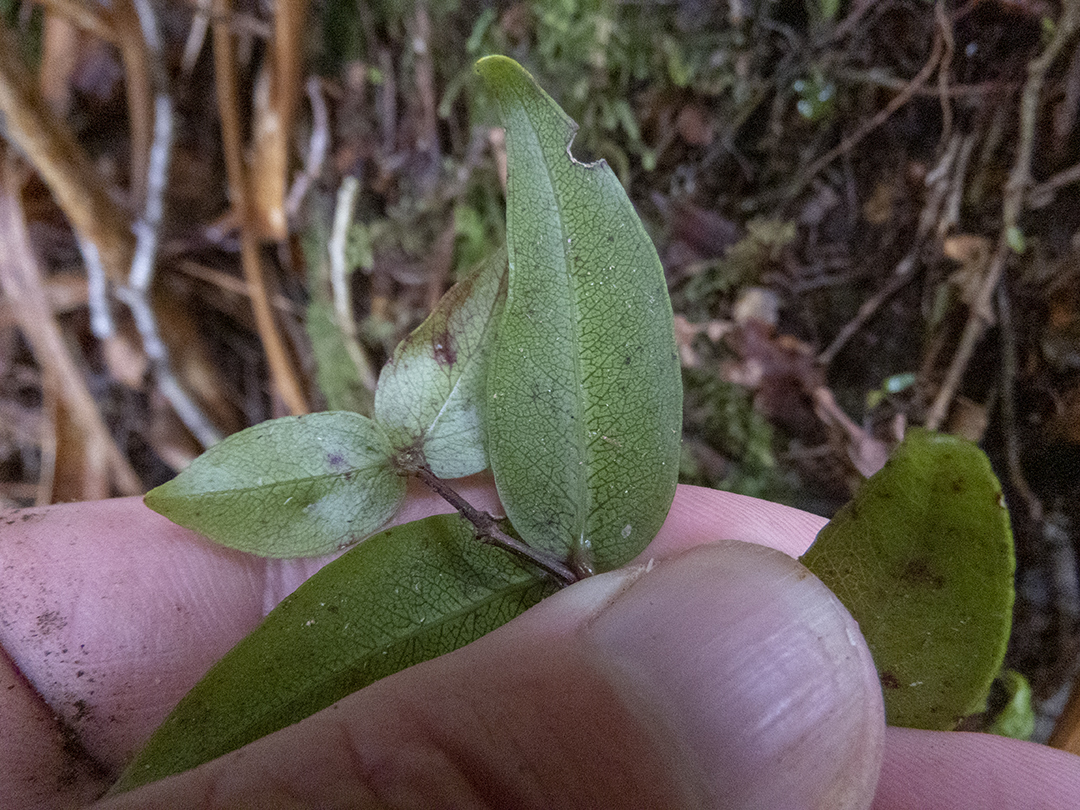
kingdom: Plantae
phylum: Tracheophyta
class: Magnoliopsida
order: Myrtales
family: Myrtaceae
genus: Metrosideros
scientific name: Metrosideros parkinsonii
